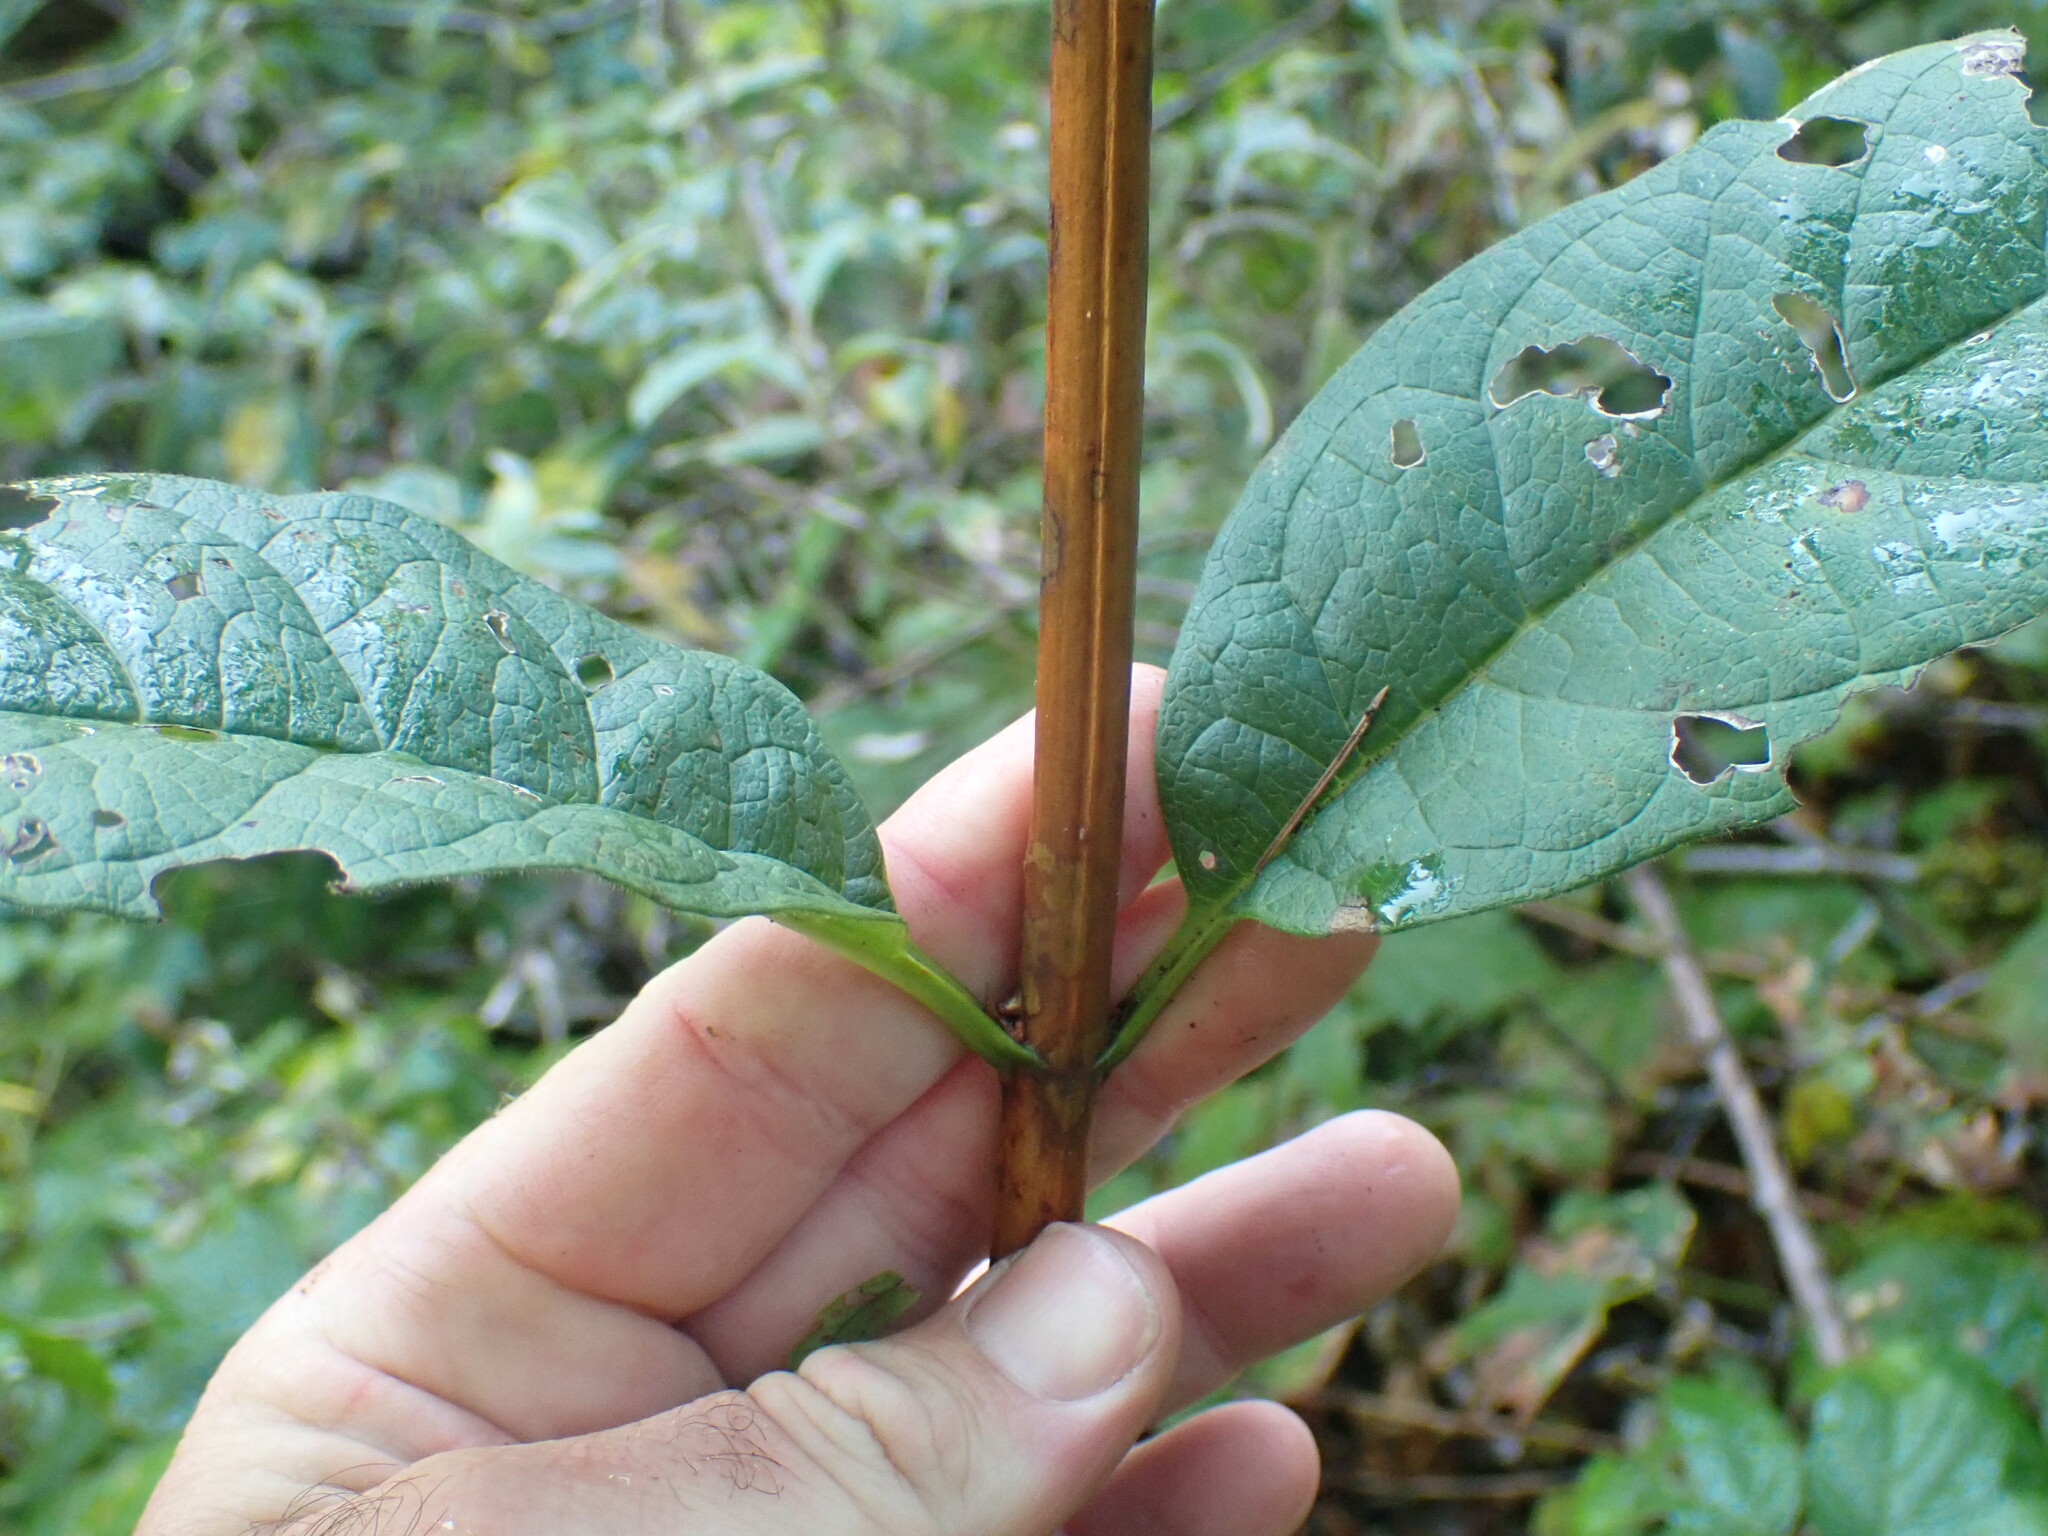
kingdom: Plantae
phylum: Tracheophyta
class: Magnoliopsida
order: Dipsacales
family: Caprifoliaceae
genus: Lonicera
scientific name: Lonicera involucrata
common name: Californian honeysuckle
